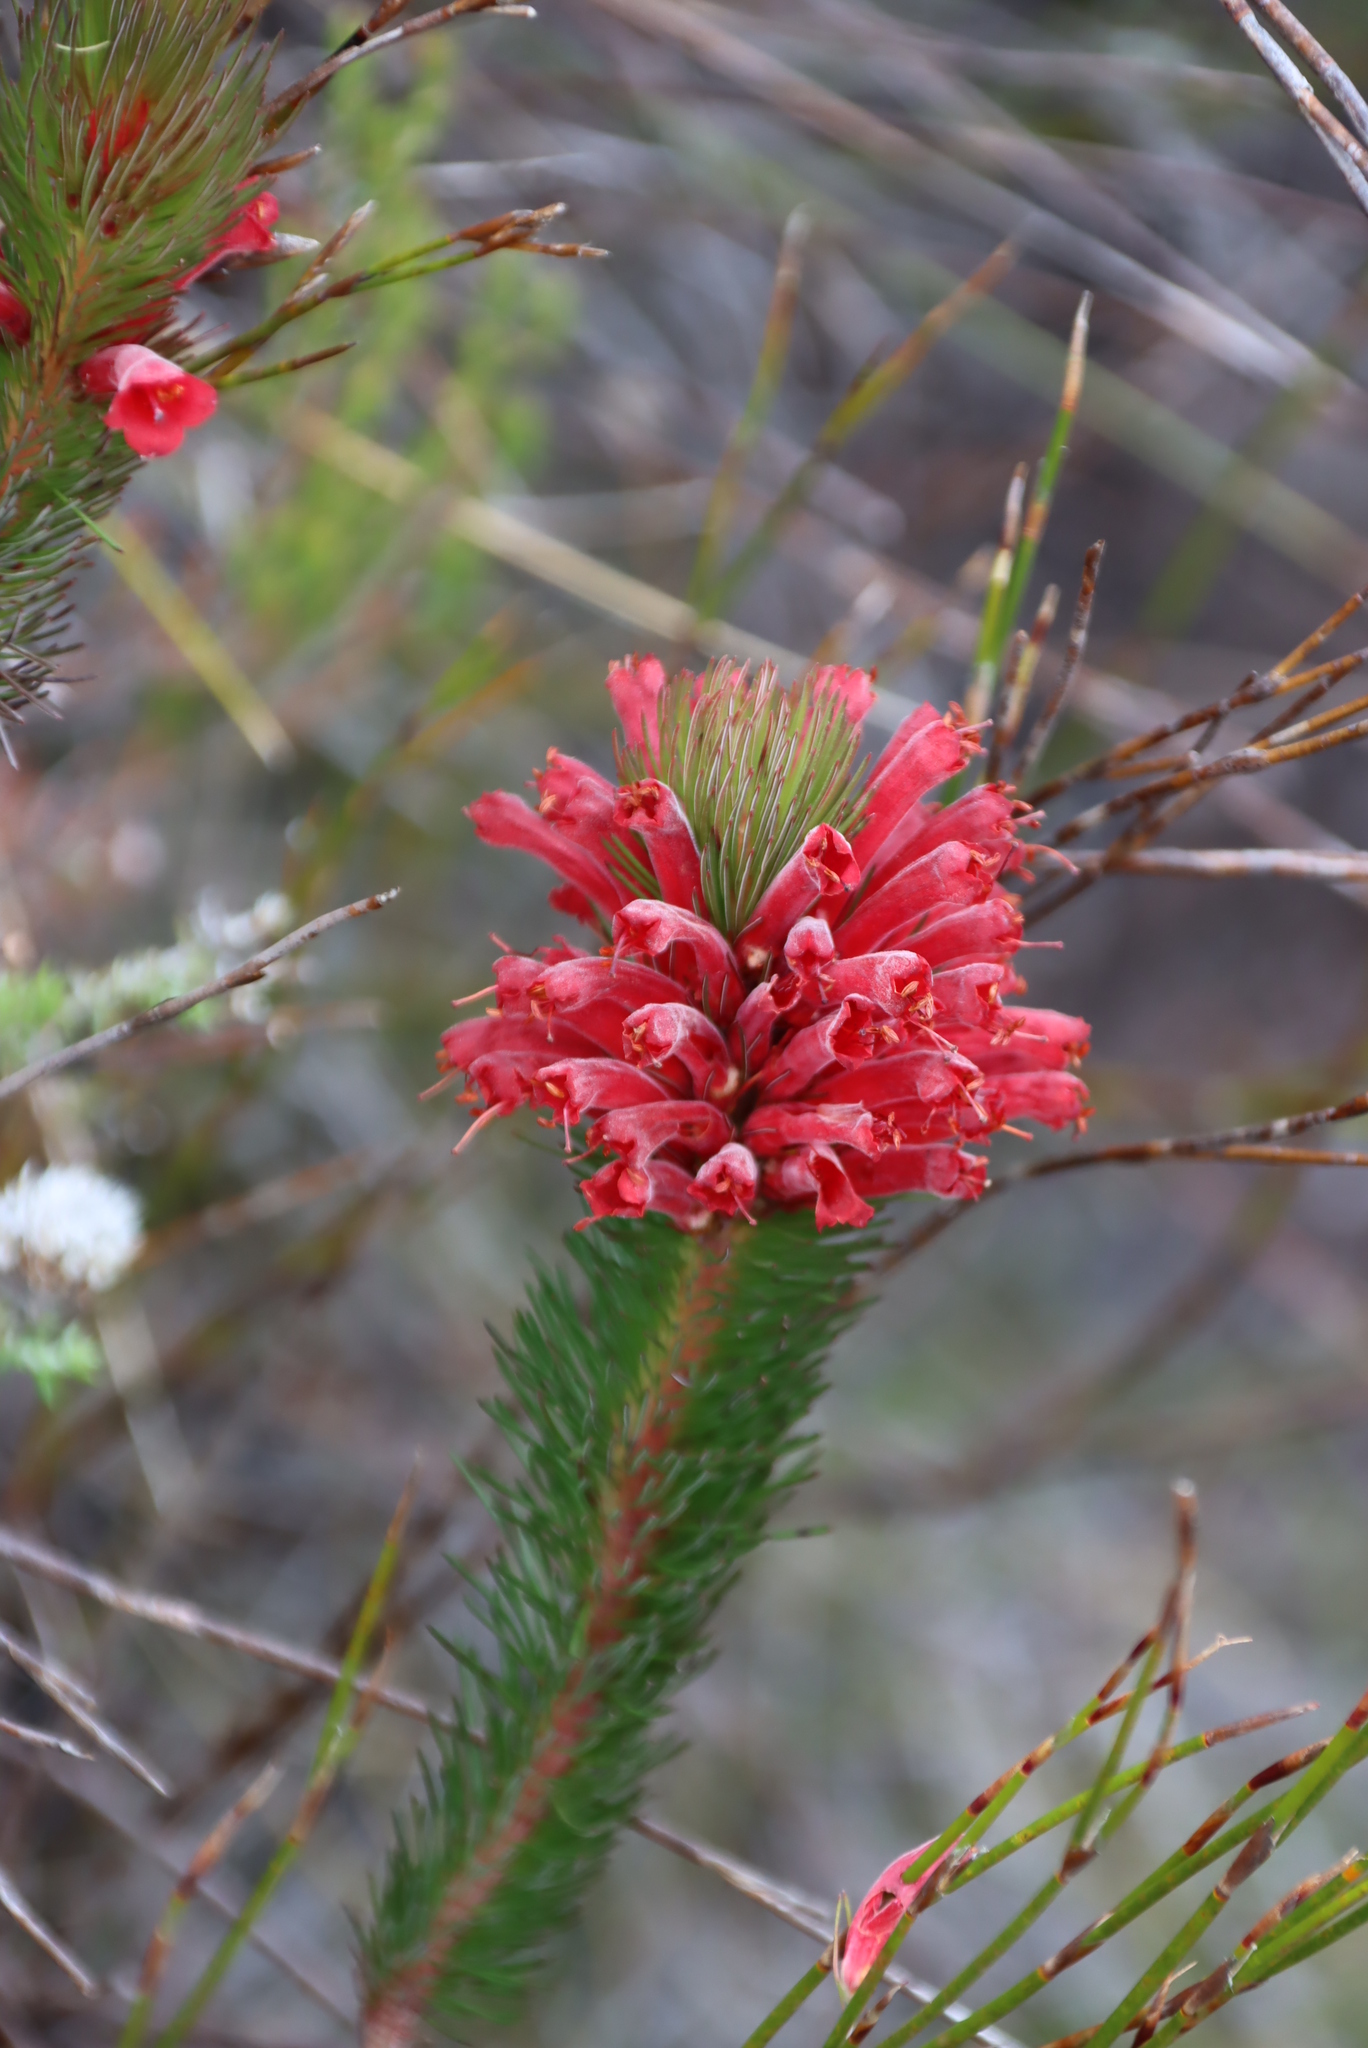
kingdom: Plantae
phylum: Tracheophyta
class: Magnoliopsida
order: Ericales
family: Ericaceae
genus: Erica
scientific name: Erica vestita
